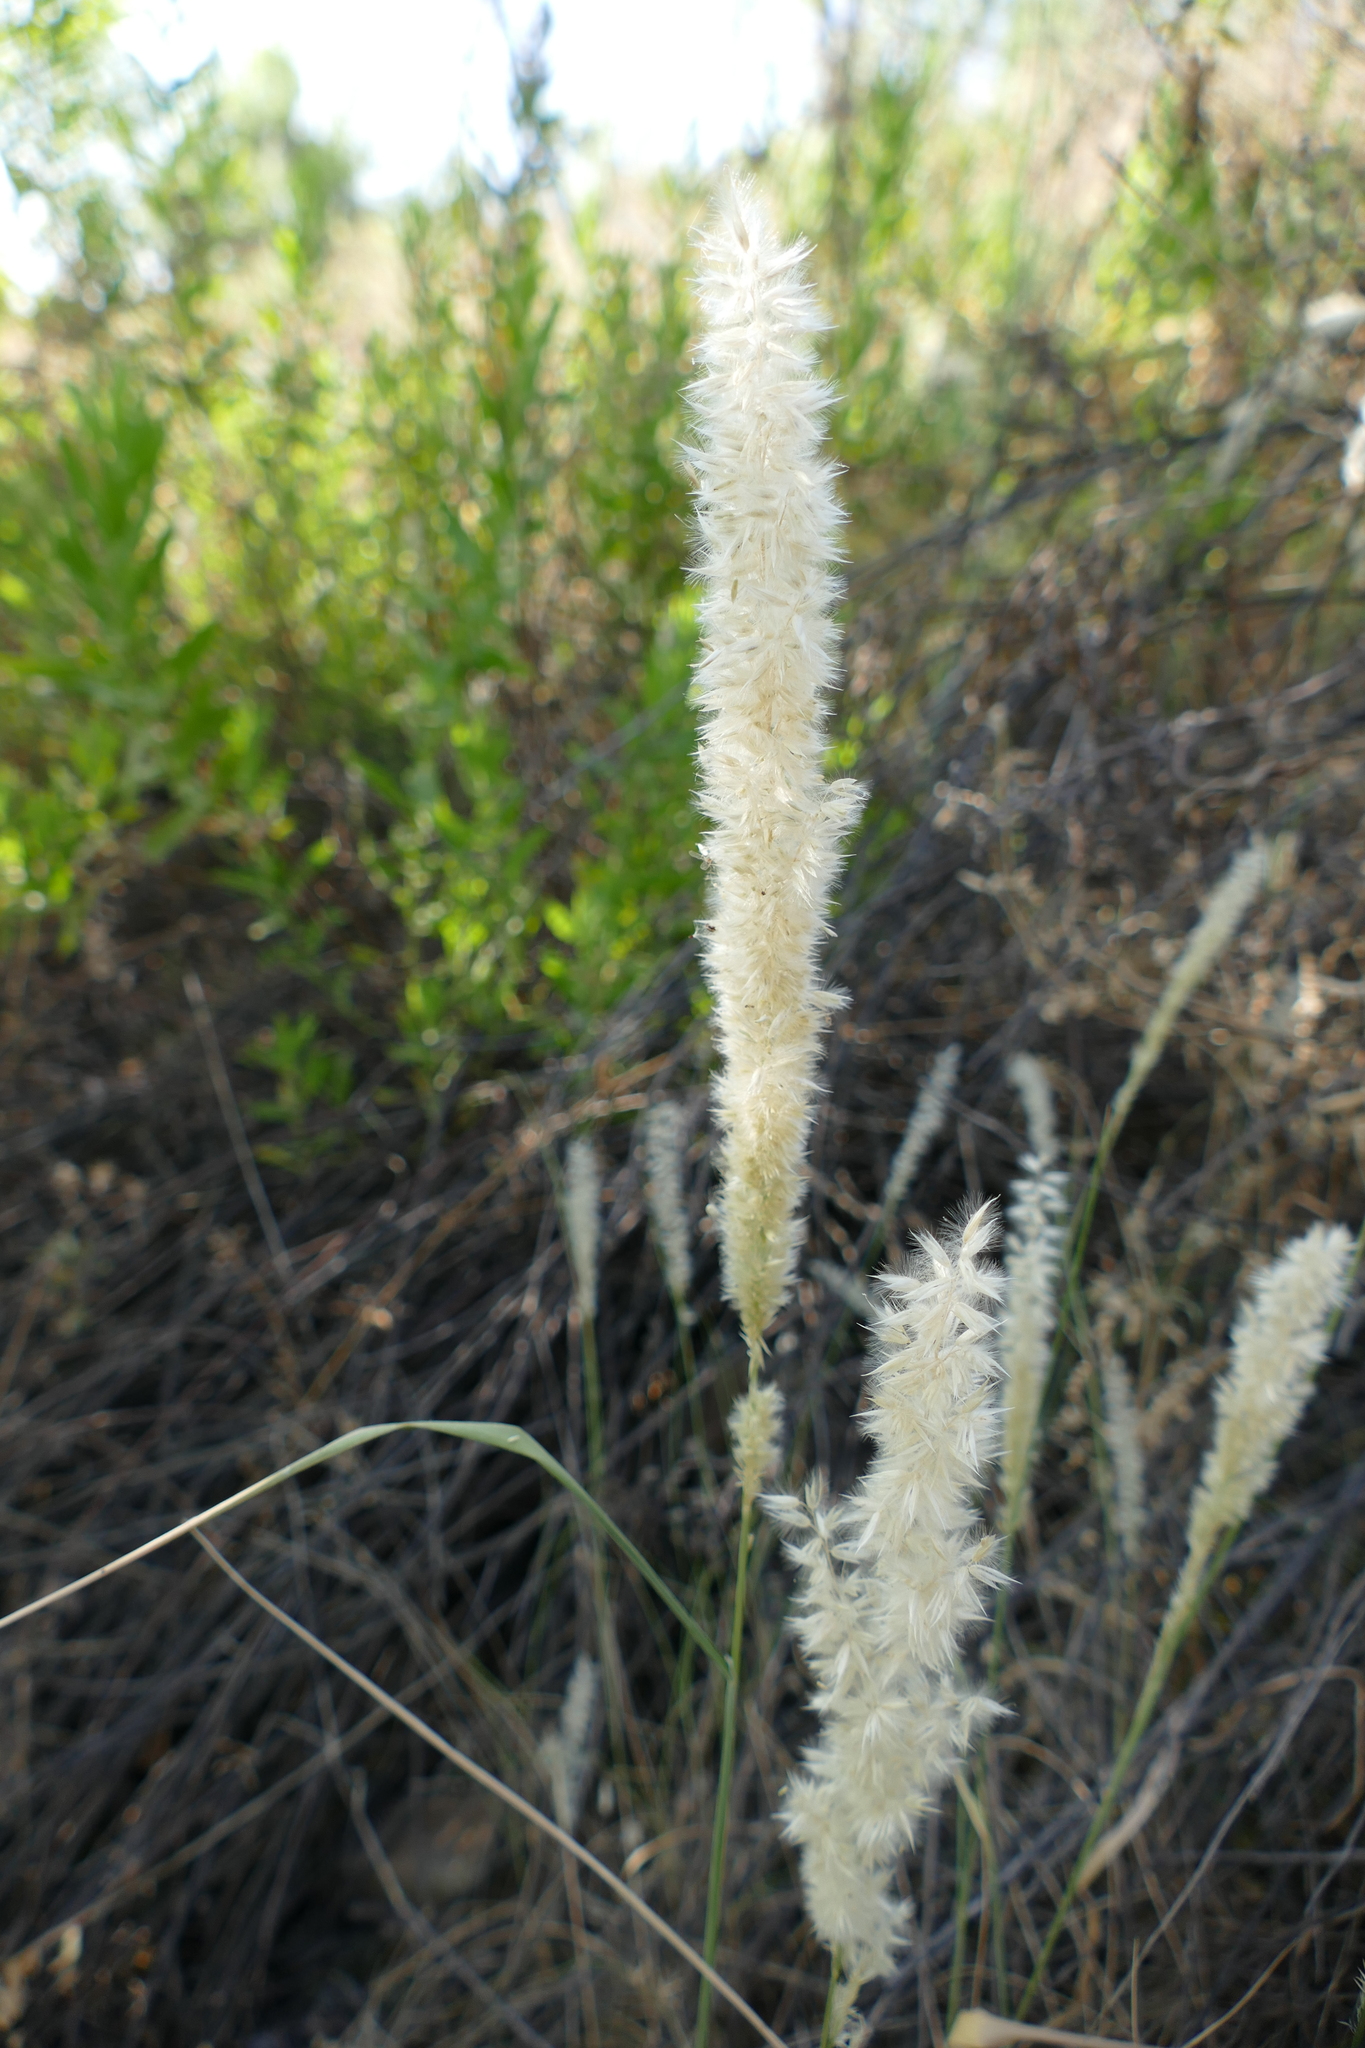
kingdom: Plantae
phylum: Tracheophyta
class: Liliopsida
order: Poales
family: Poaceae
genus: Melica
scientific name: Melica ciliata
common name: Hairy melicgrass
